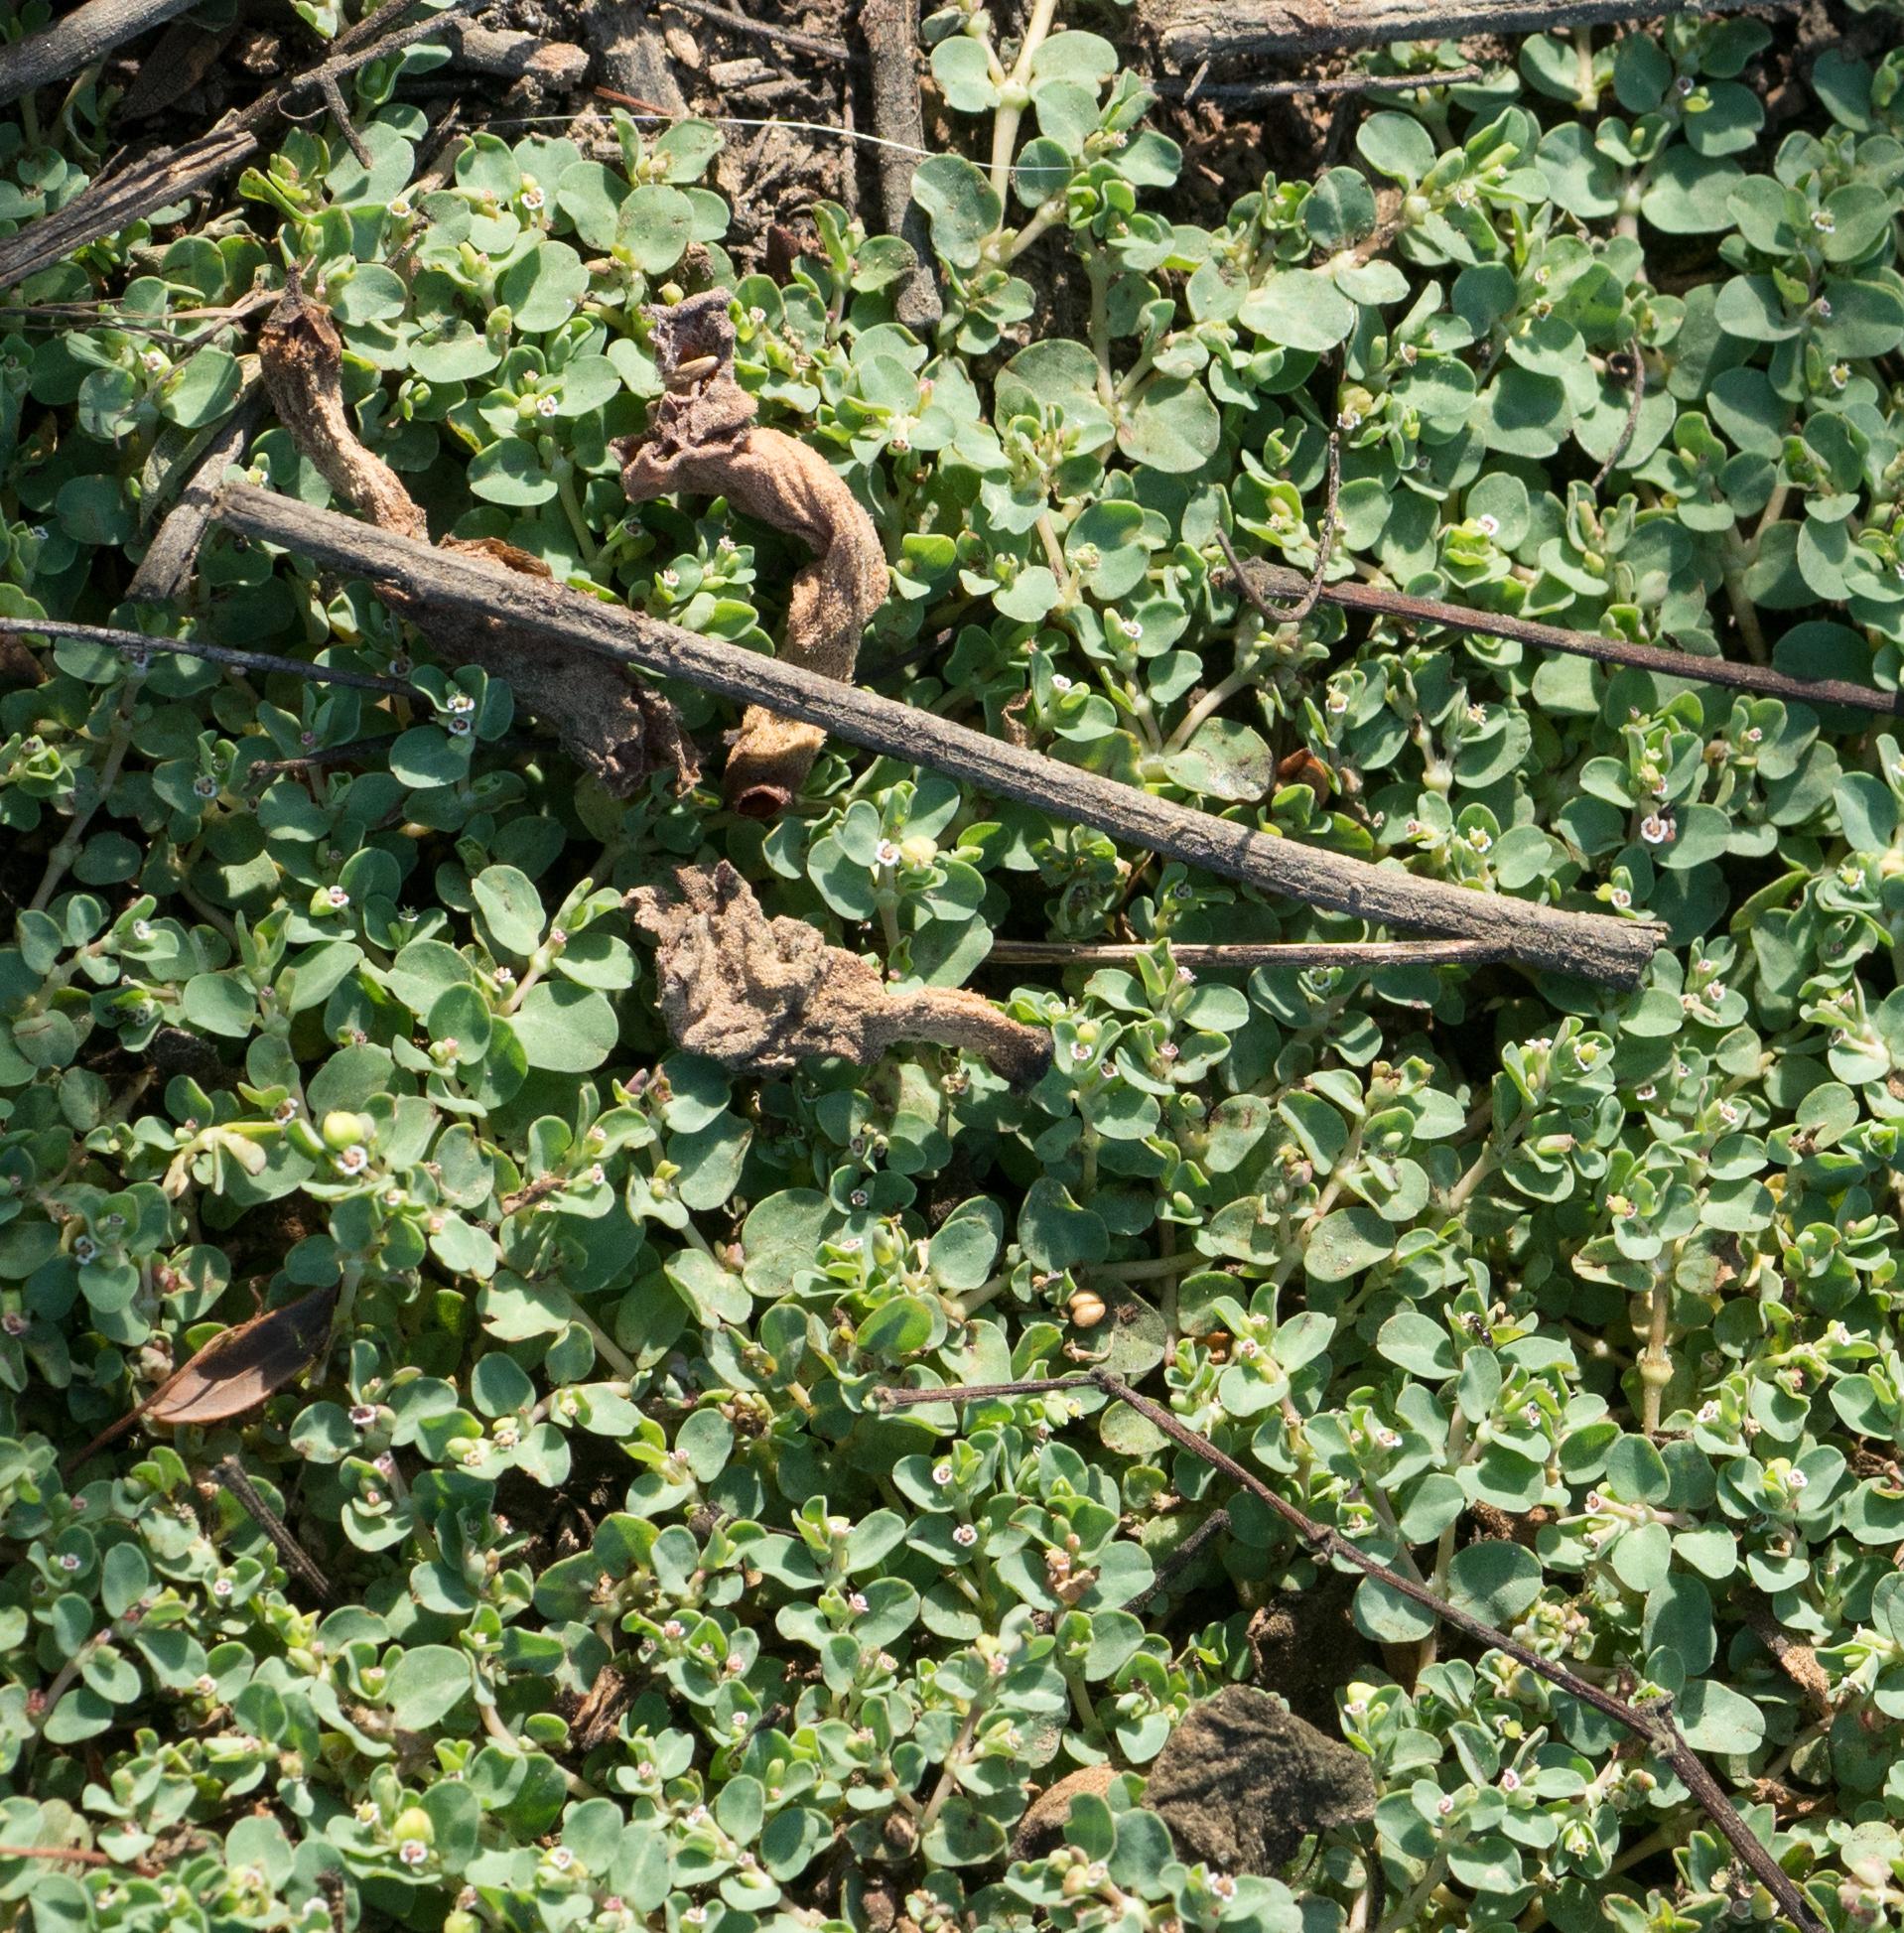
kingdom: Plantae
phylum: Tracheophyta
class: Magnoliopsida
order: Malpighiales
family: Euphorbiaceae
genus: Euphorbia
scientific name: Euphorbia serpens
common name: Matted sandmat
